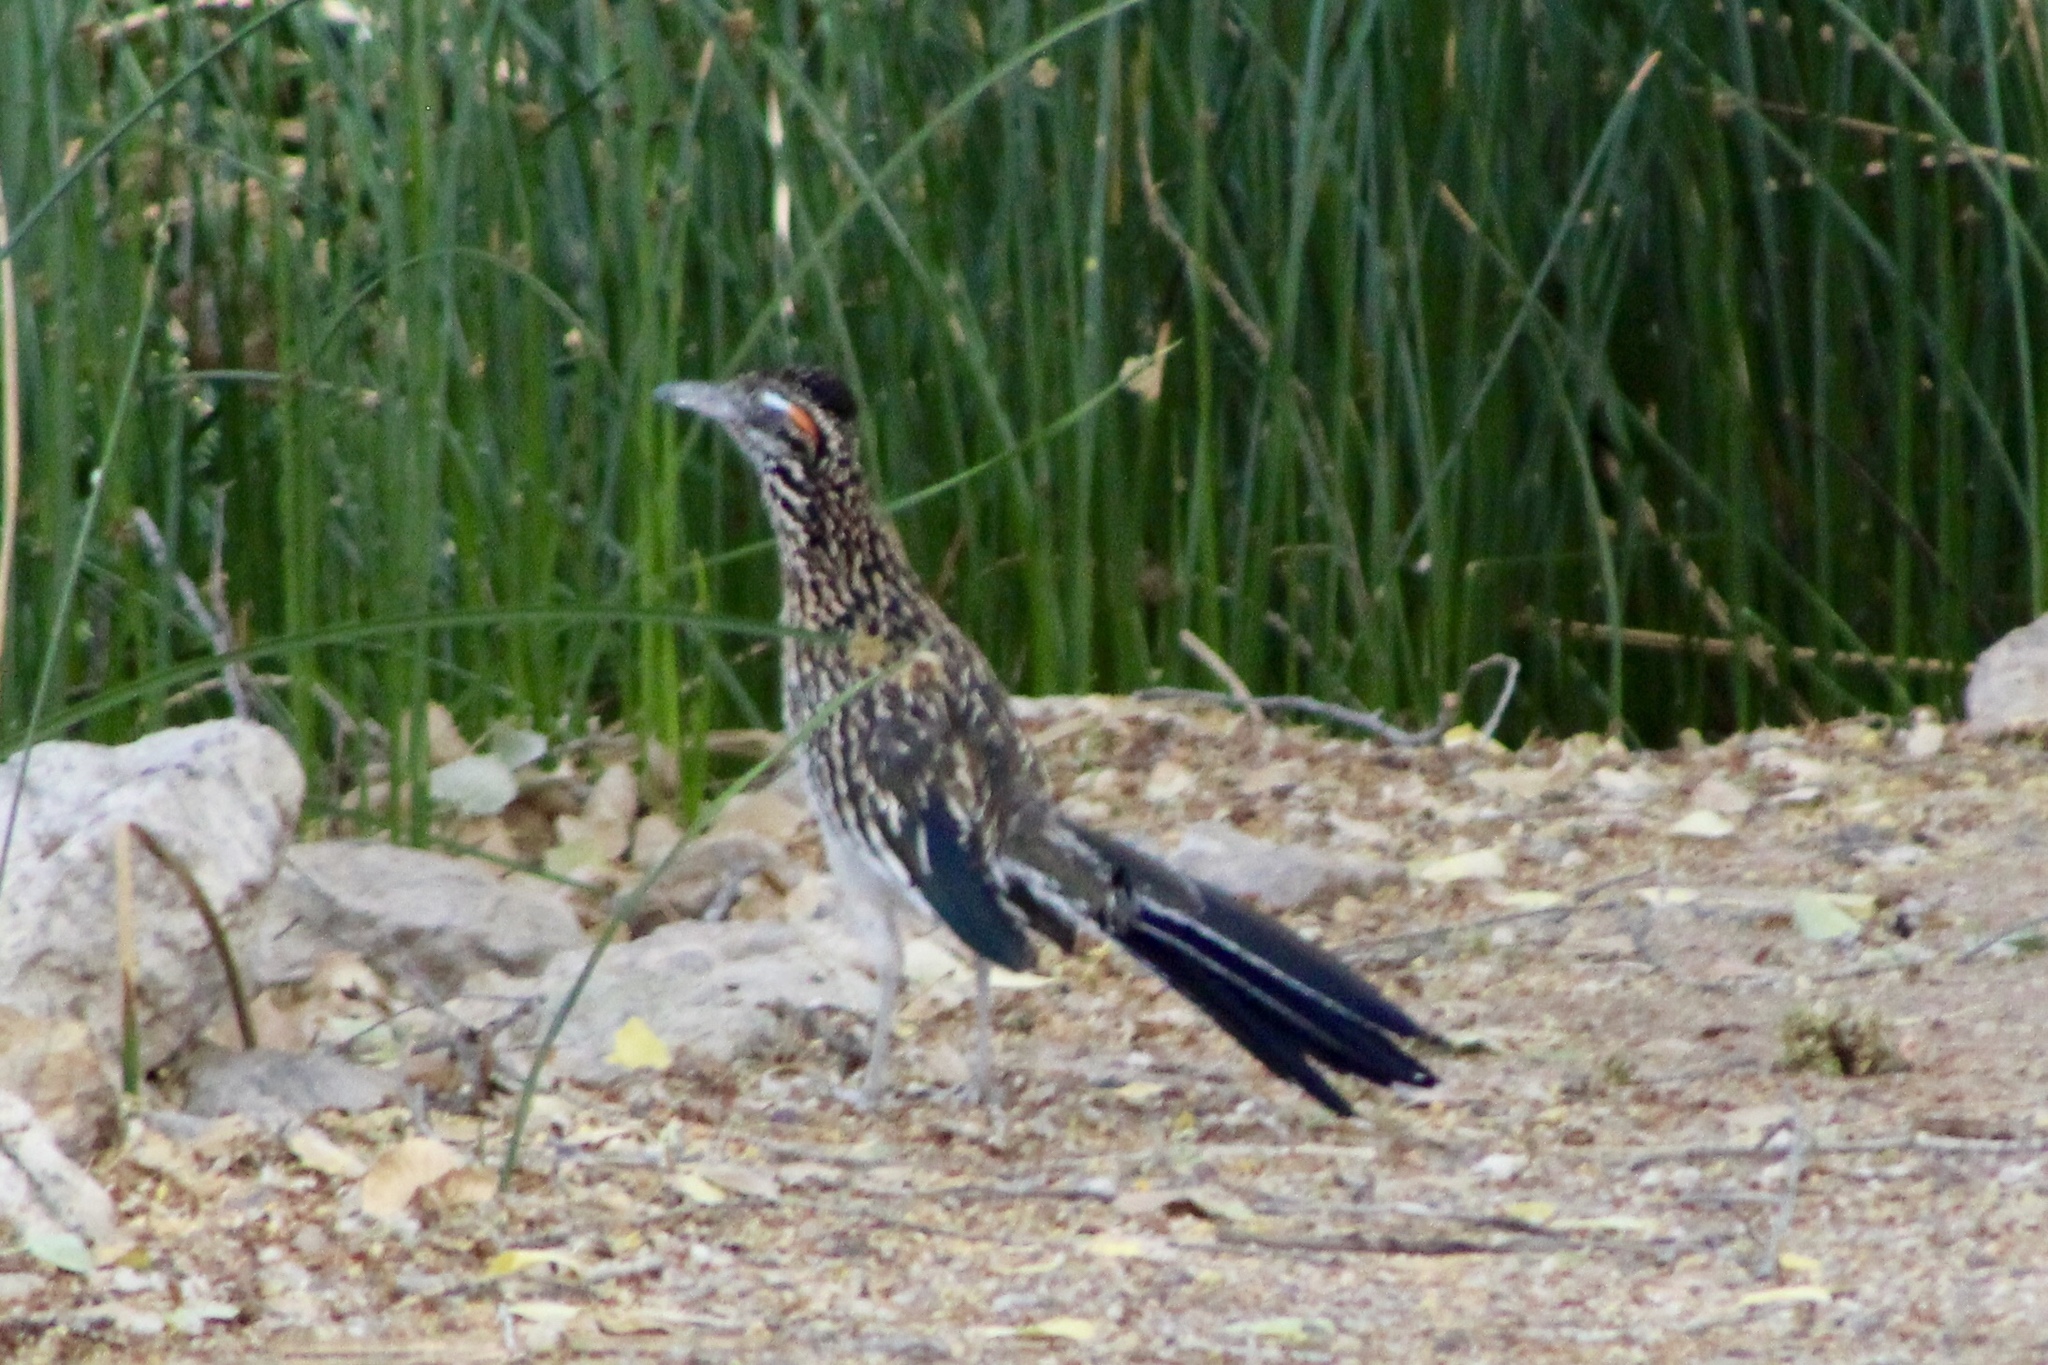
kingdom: Animalia
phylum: Chordata
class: Aves
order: Cuculiformes
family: Cuculidae
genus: Geococcyx
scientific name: Geococcyx californianus
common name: Greater roadrunner
